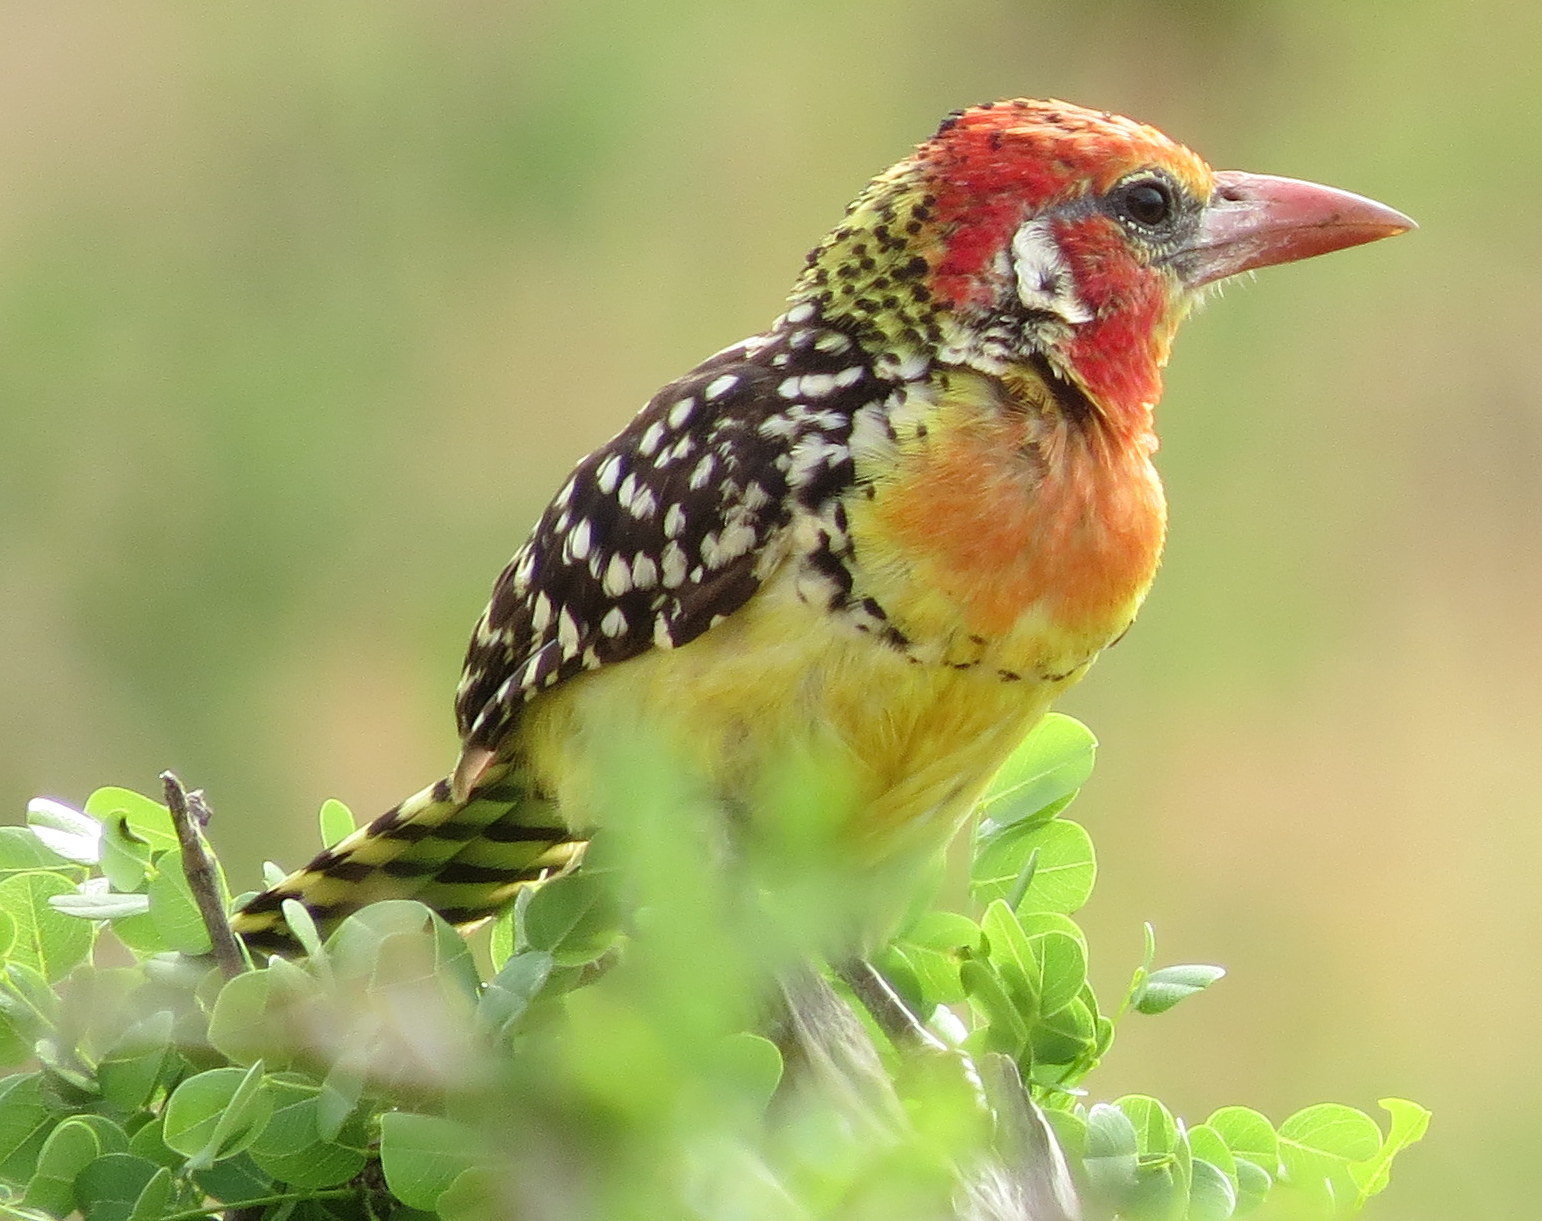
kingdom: Animalia
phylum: Chordata
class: Aves
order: Piciformes
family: Lybiidae
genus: Trachyphonus
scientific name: Trachyphonus erythrocephalus
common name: Red-and-yellow barbet
